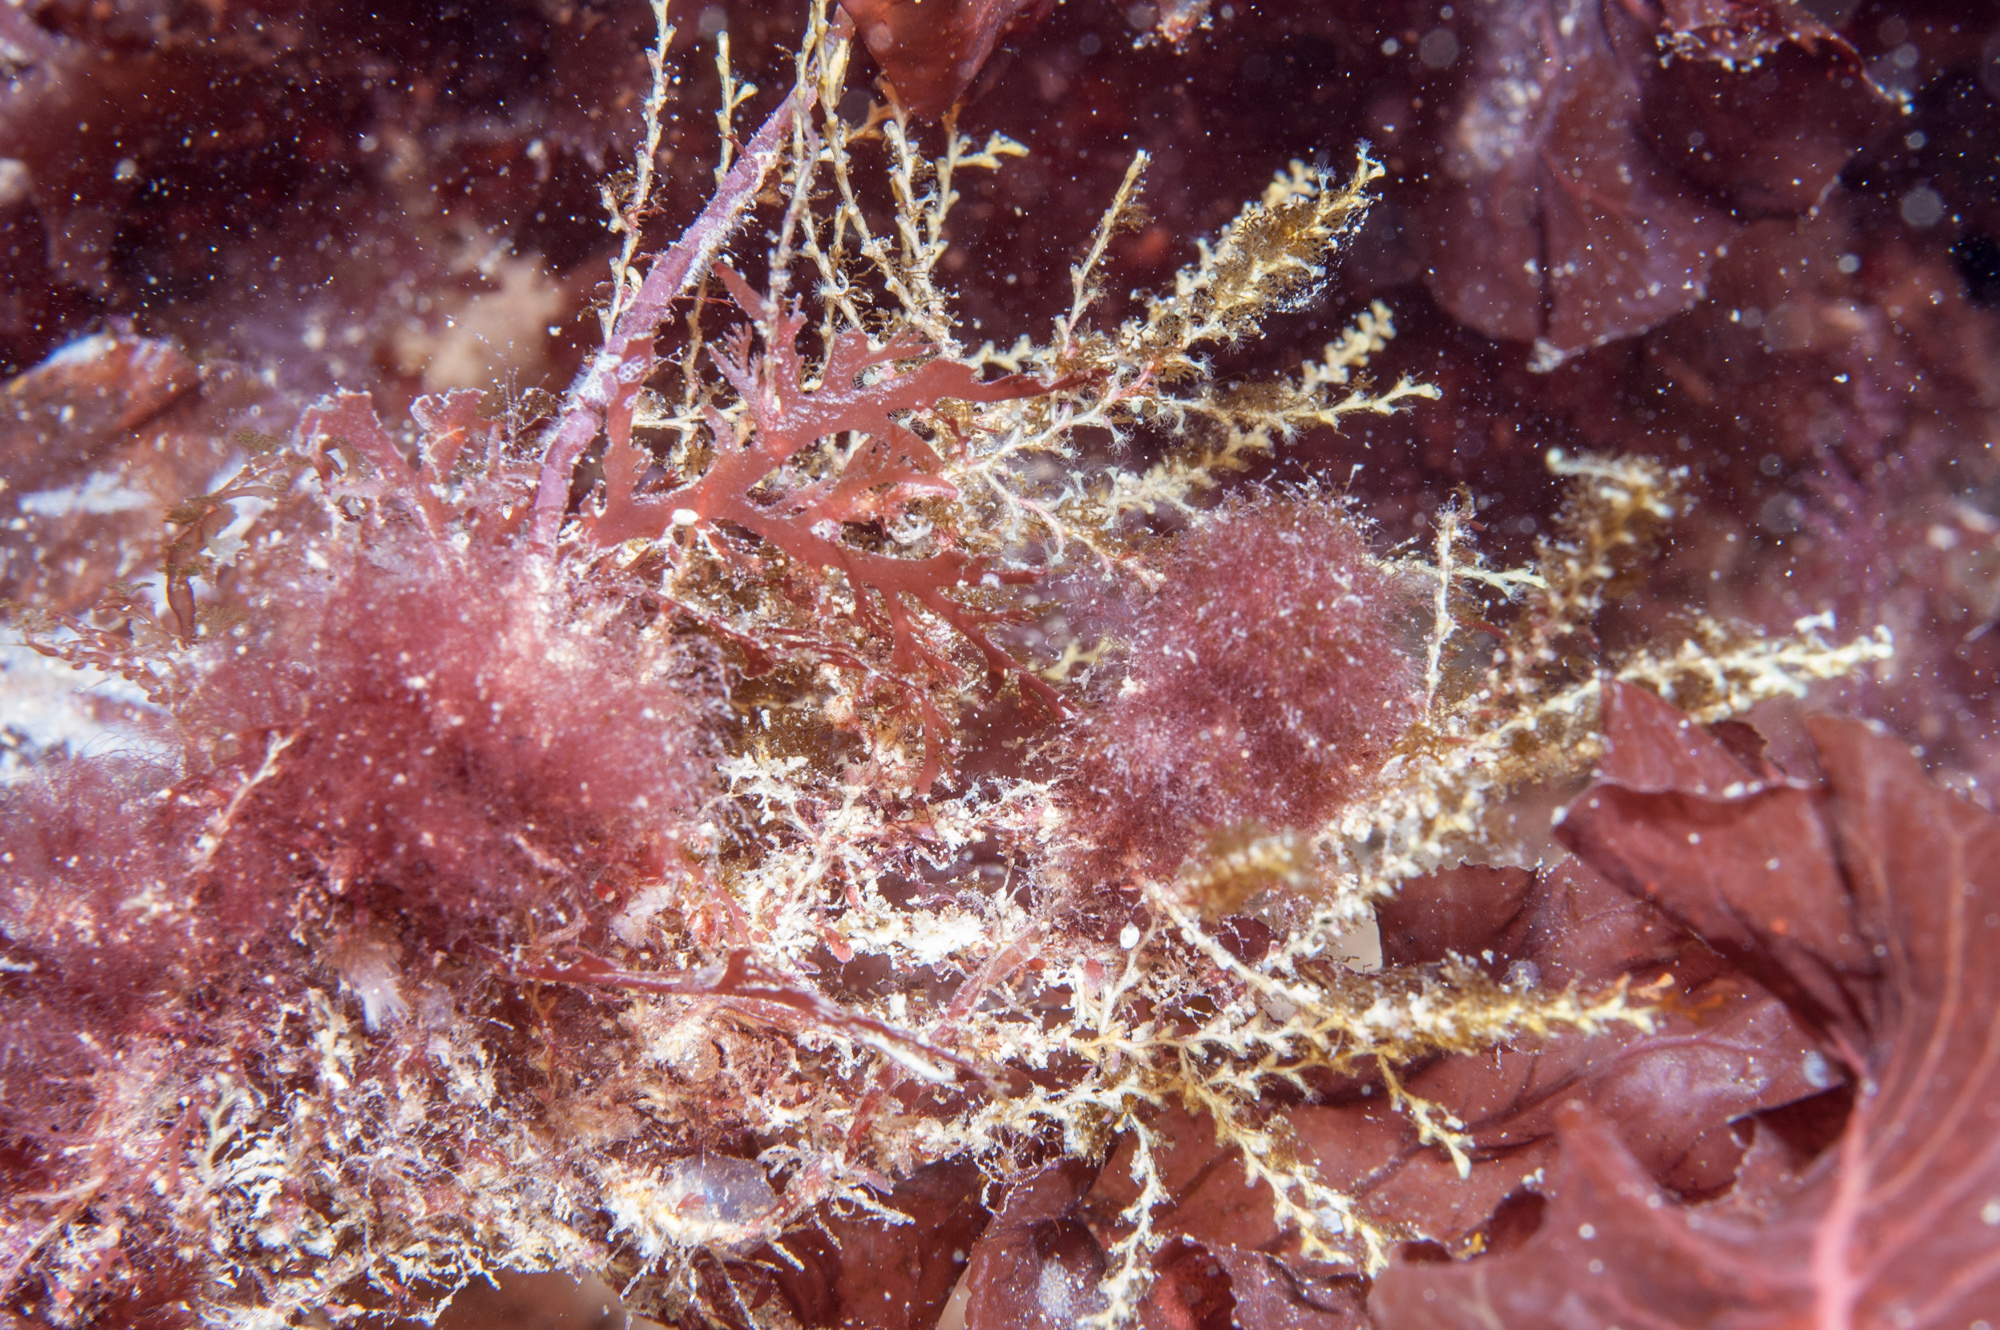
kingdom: Animalia
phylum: Cnidaria
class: Hydrozoa
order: Leptothecata
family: Sertularellidae
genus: Sertularella
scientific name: Sertularella gayi
